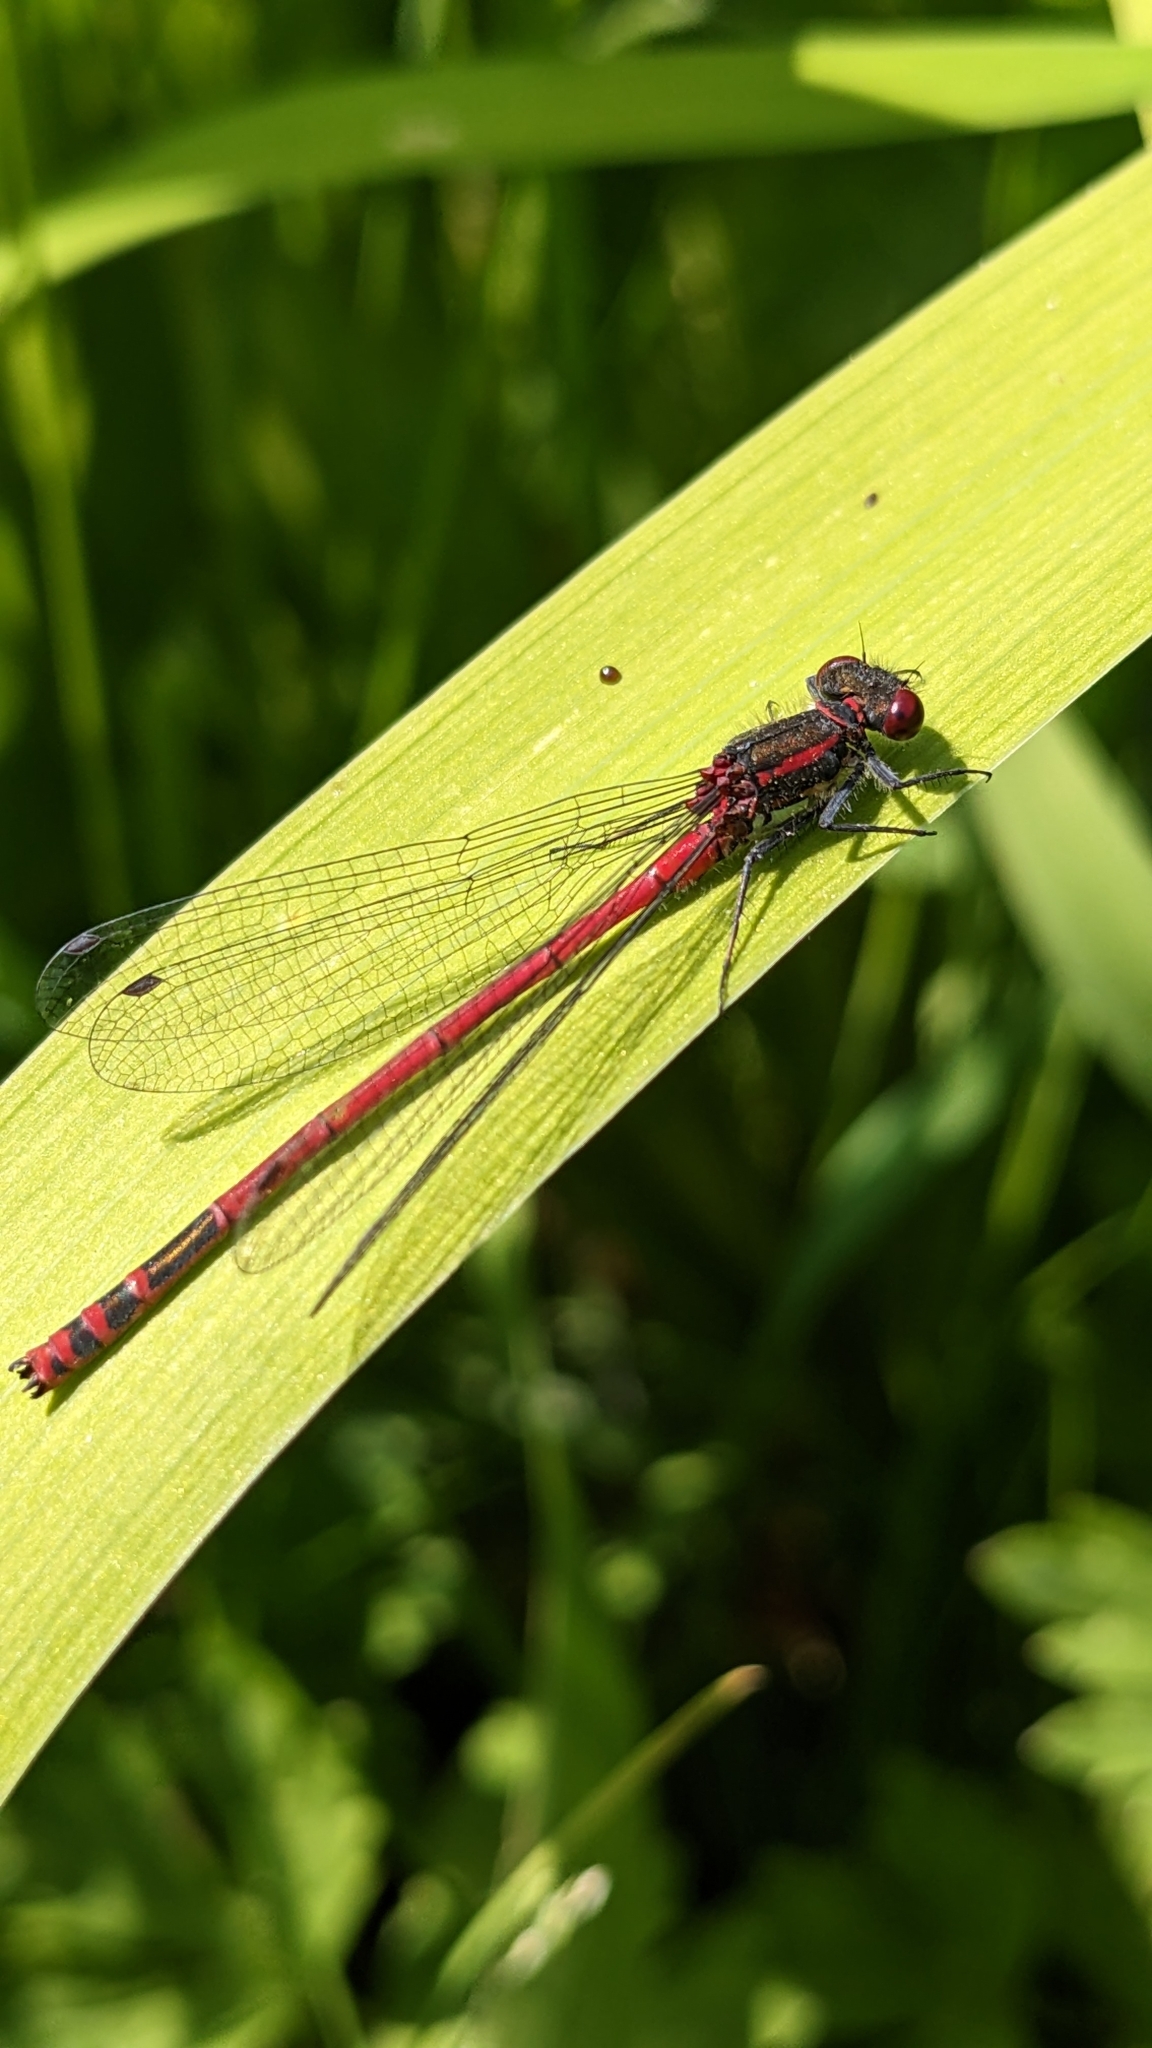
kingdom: Animalia
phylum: Arthropoda
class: Insecta
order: Odonata
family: Coenagrionidae
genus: Pyrrhosoma
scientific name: Pyrrhosoma nymphula
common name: Large red damsel
